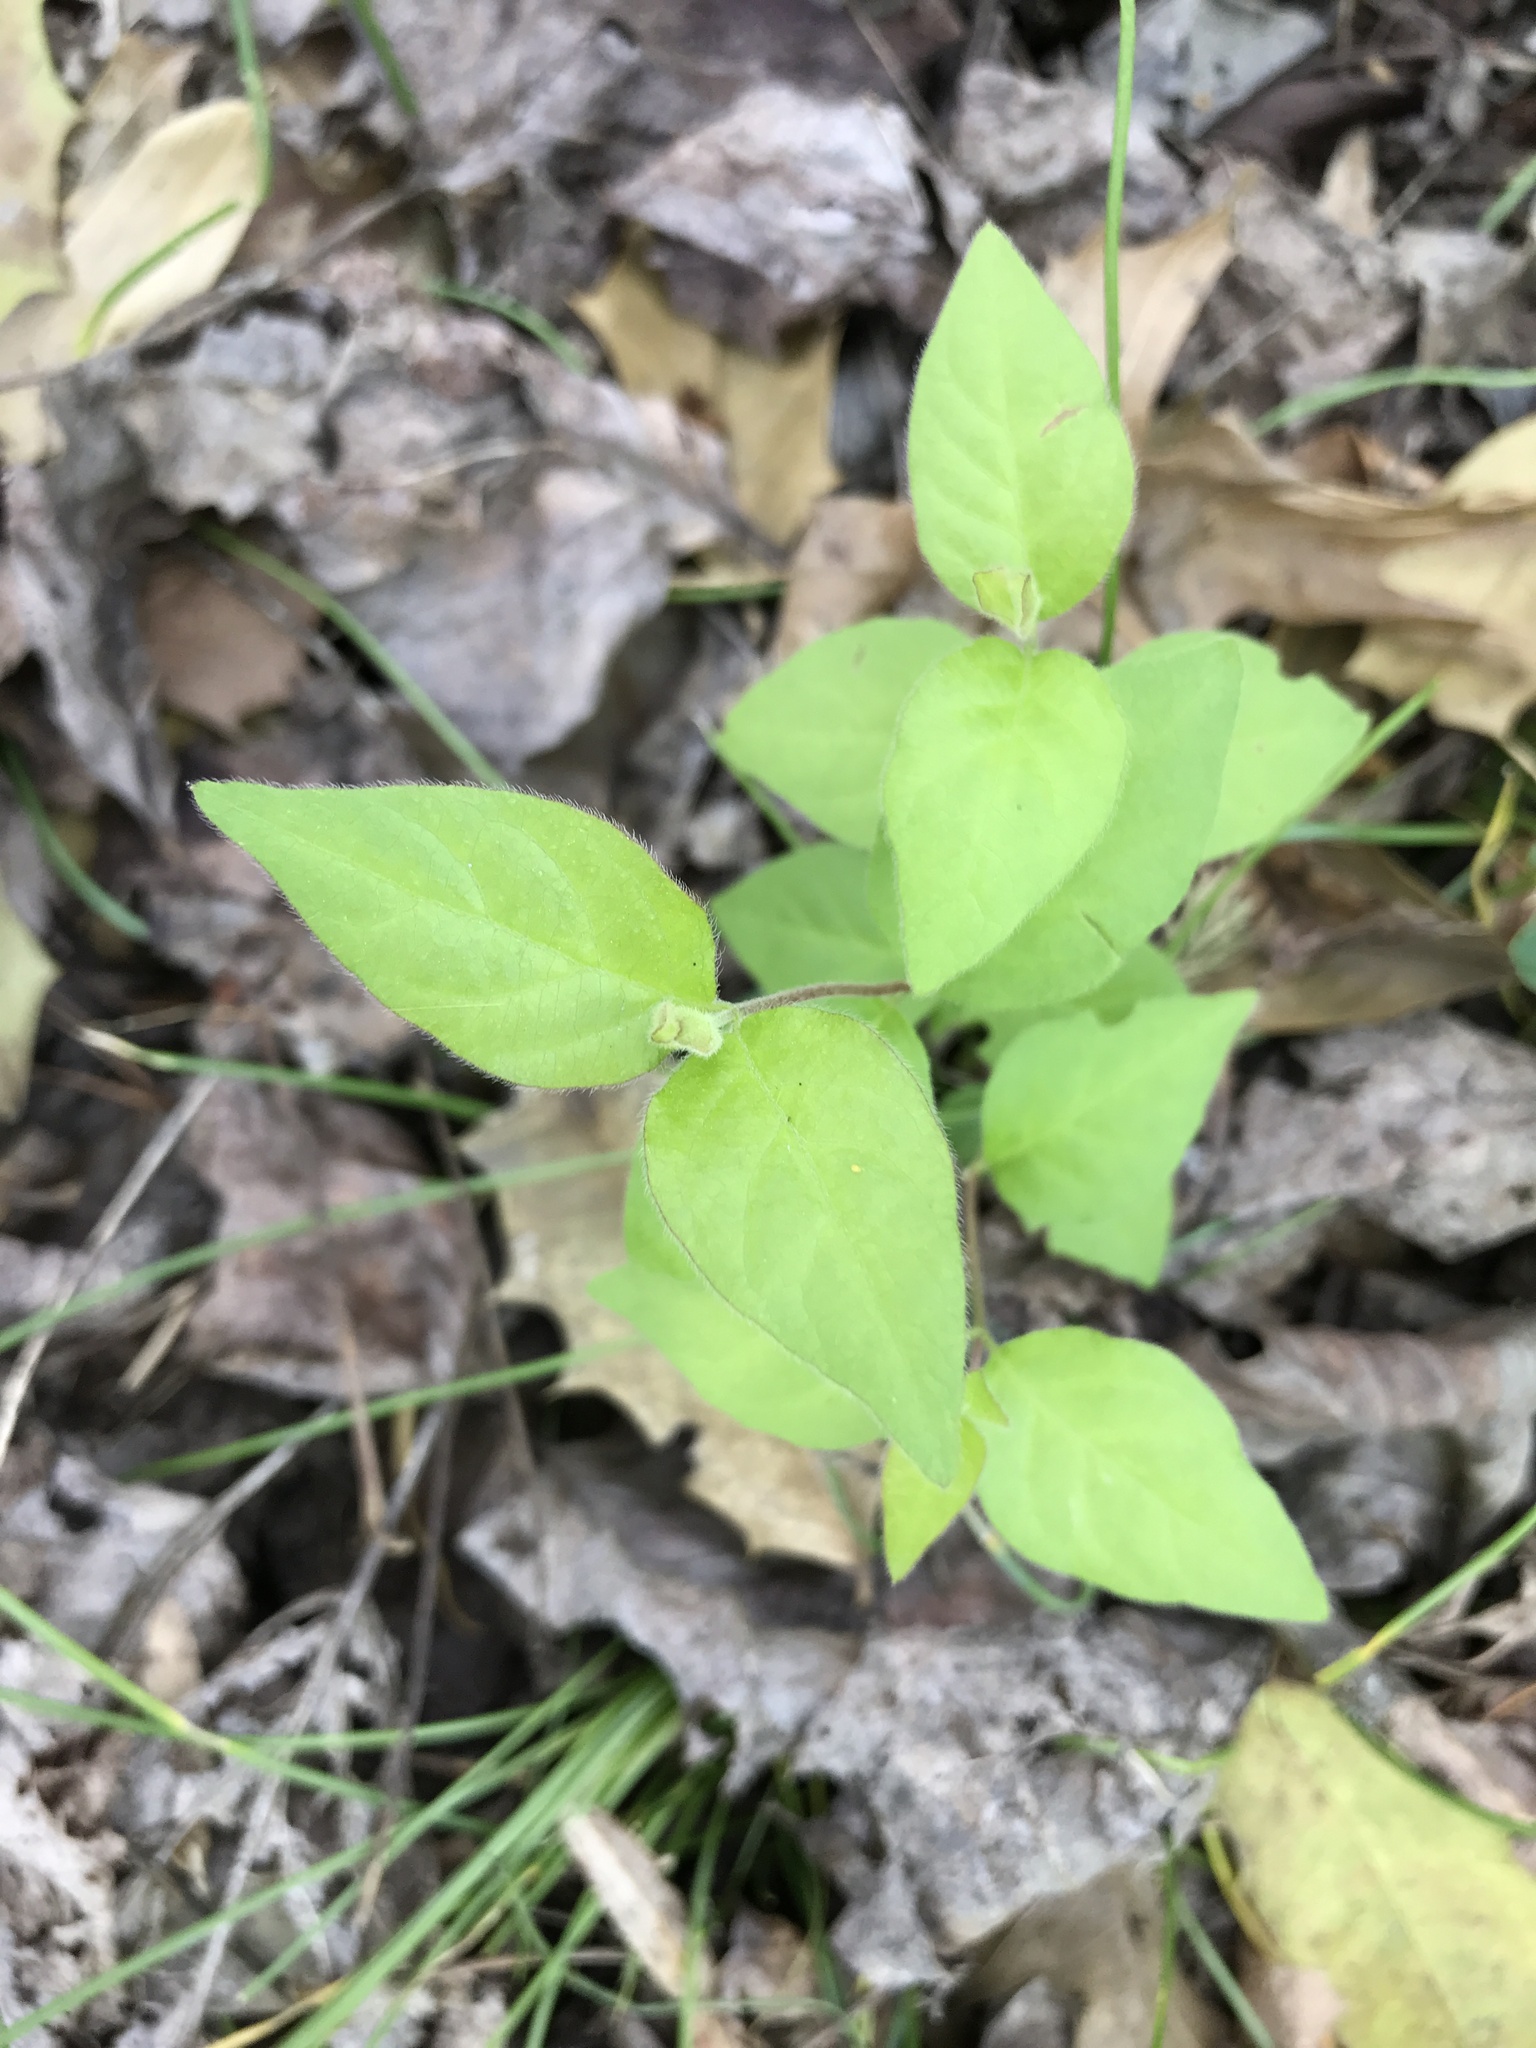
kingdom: Plantae
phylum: Tracheophyta
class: Magnoliopsida
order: Dipsacales
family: Caprifoliaceae
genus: Lonicera
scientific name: Lonicera maackii
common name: Amur honeysuckle
